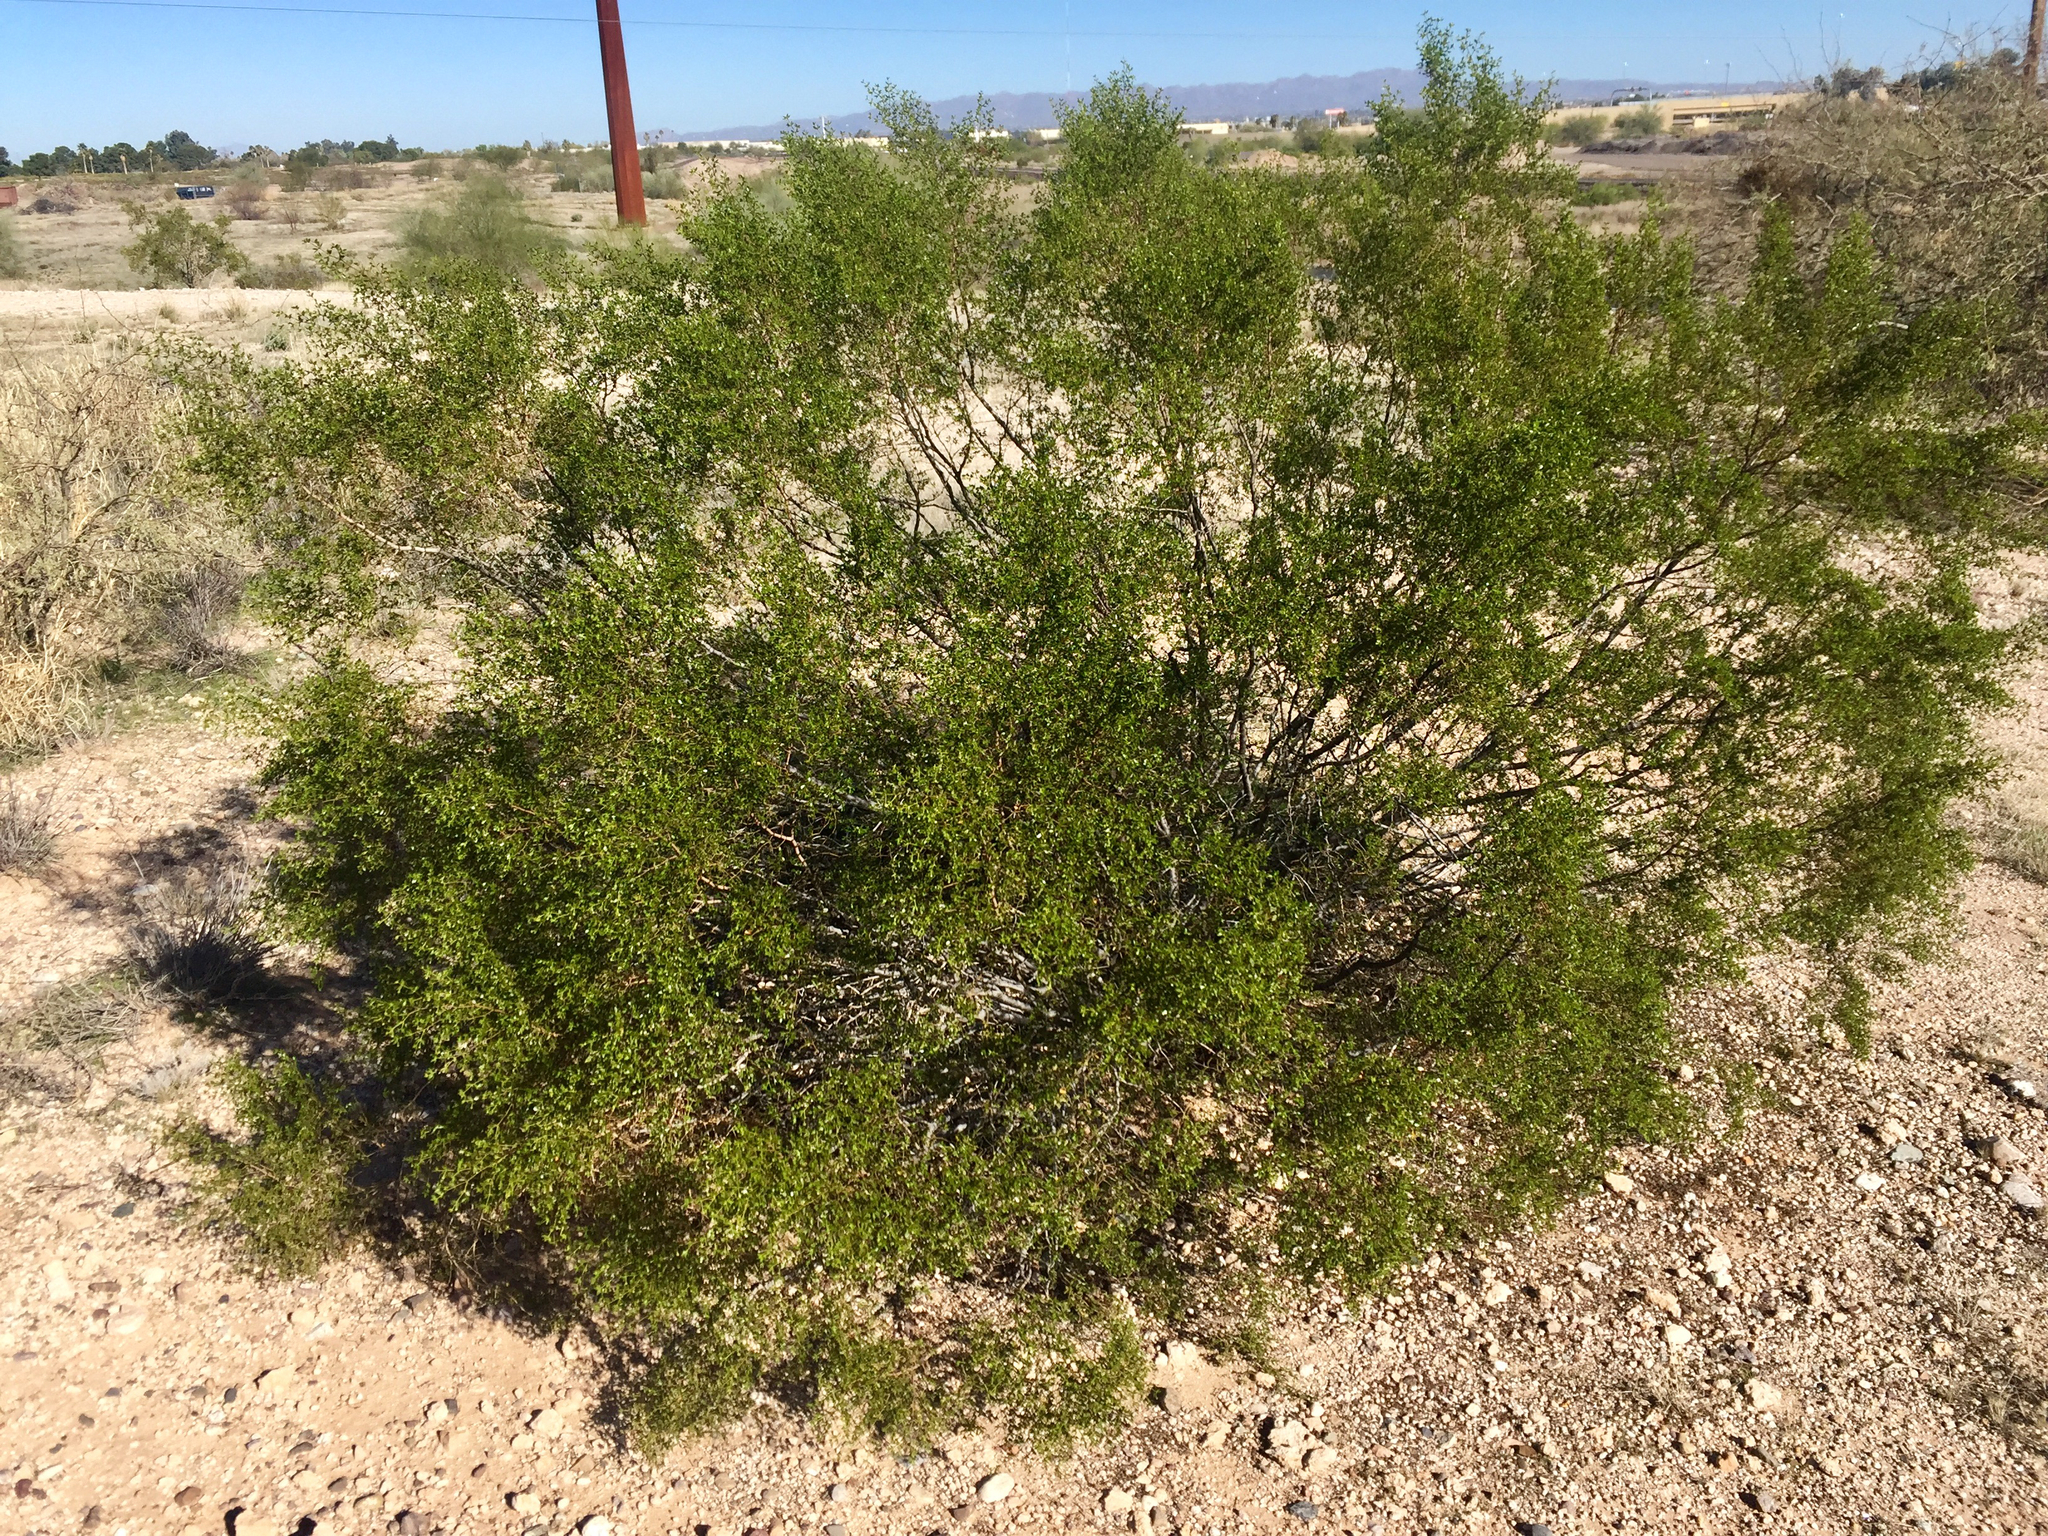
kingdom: Plantae
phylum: Tracheophyta
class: Magnoliopsida
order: Zygophyllales
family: Zygophyllaceae
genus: Larrea
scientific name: Larrea tridentata
